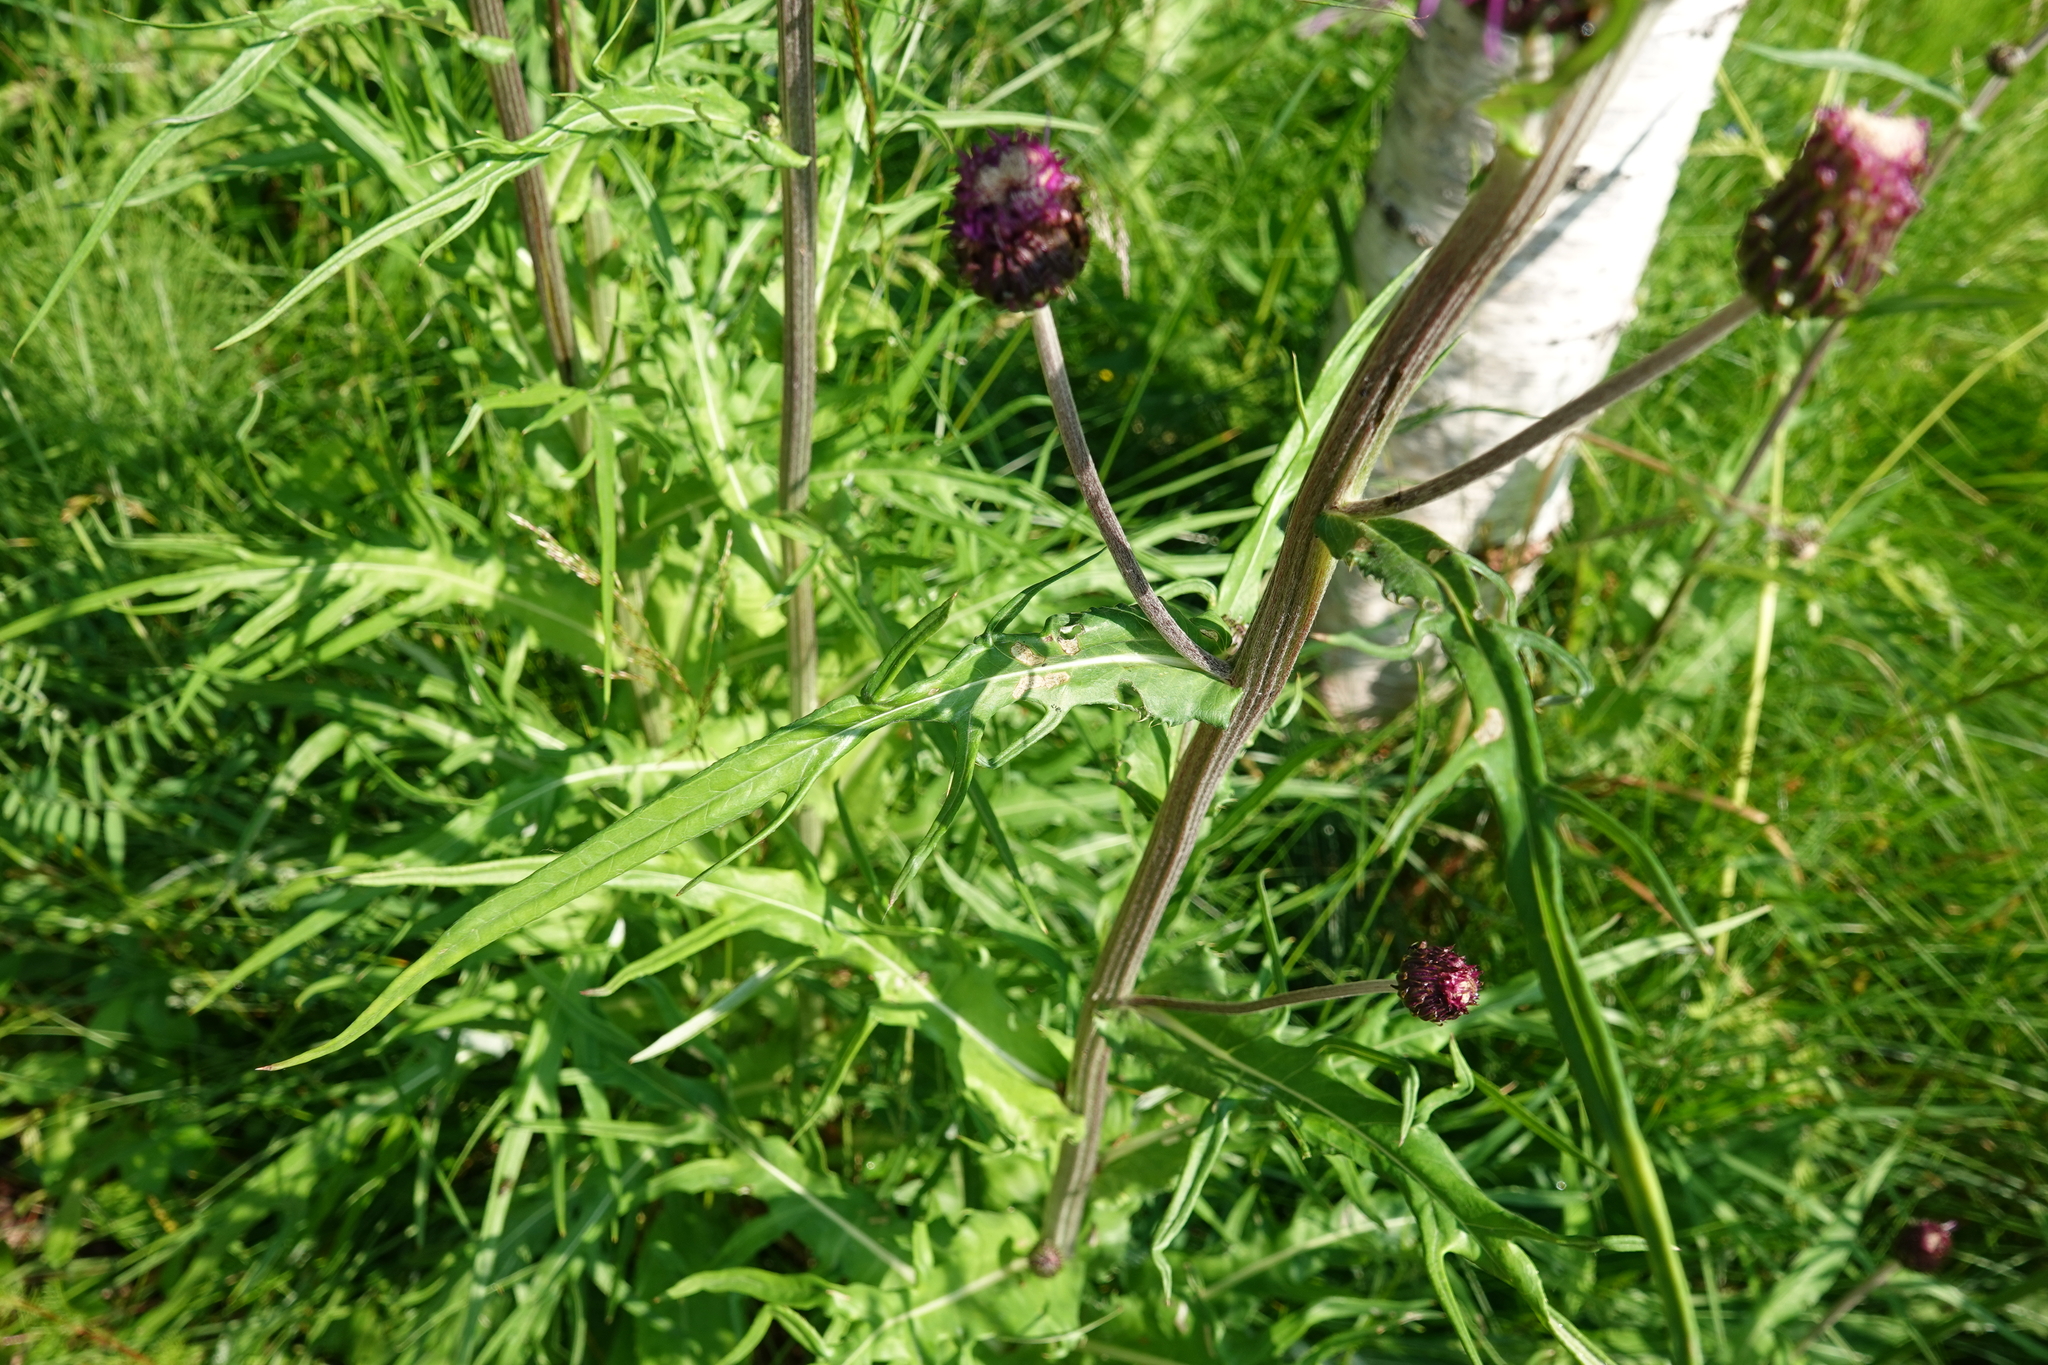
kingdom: Plantae
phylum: Tracheophyta
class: Magnoliopsida
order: Asterales
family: Asteraceae
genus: Cirsium
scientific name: Cirsium heterophyllum
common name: Melancholy thistle
